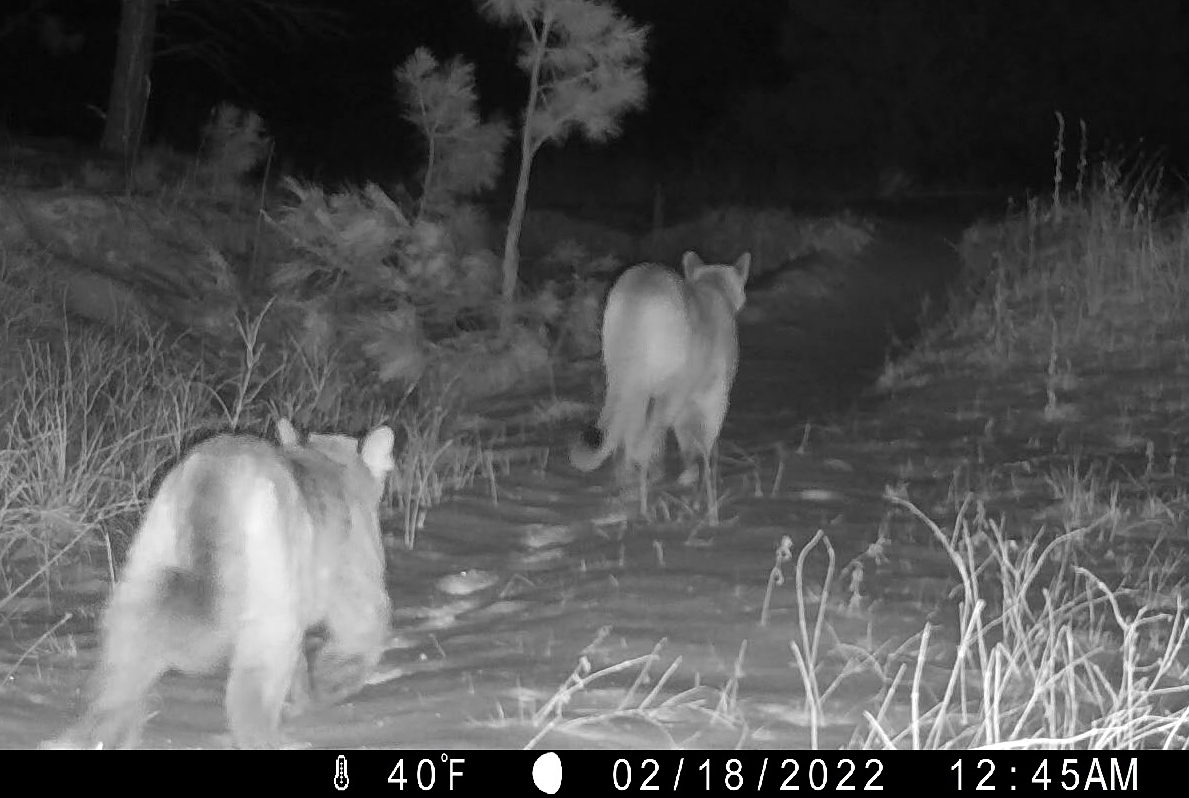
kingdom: Animalia
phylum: Chordata
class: Mammalia
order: Carnivora
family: Felidae
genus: Puma
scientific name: Puma concolor
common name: Puma
